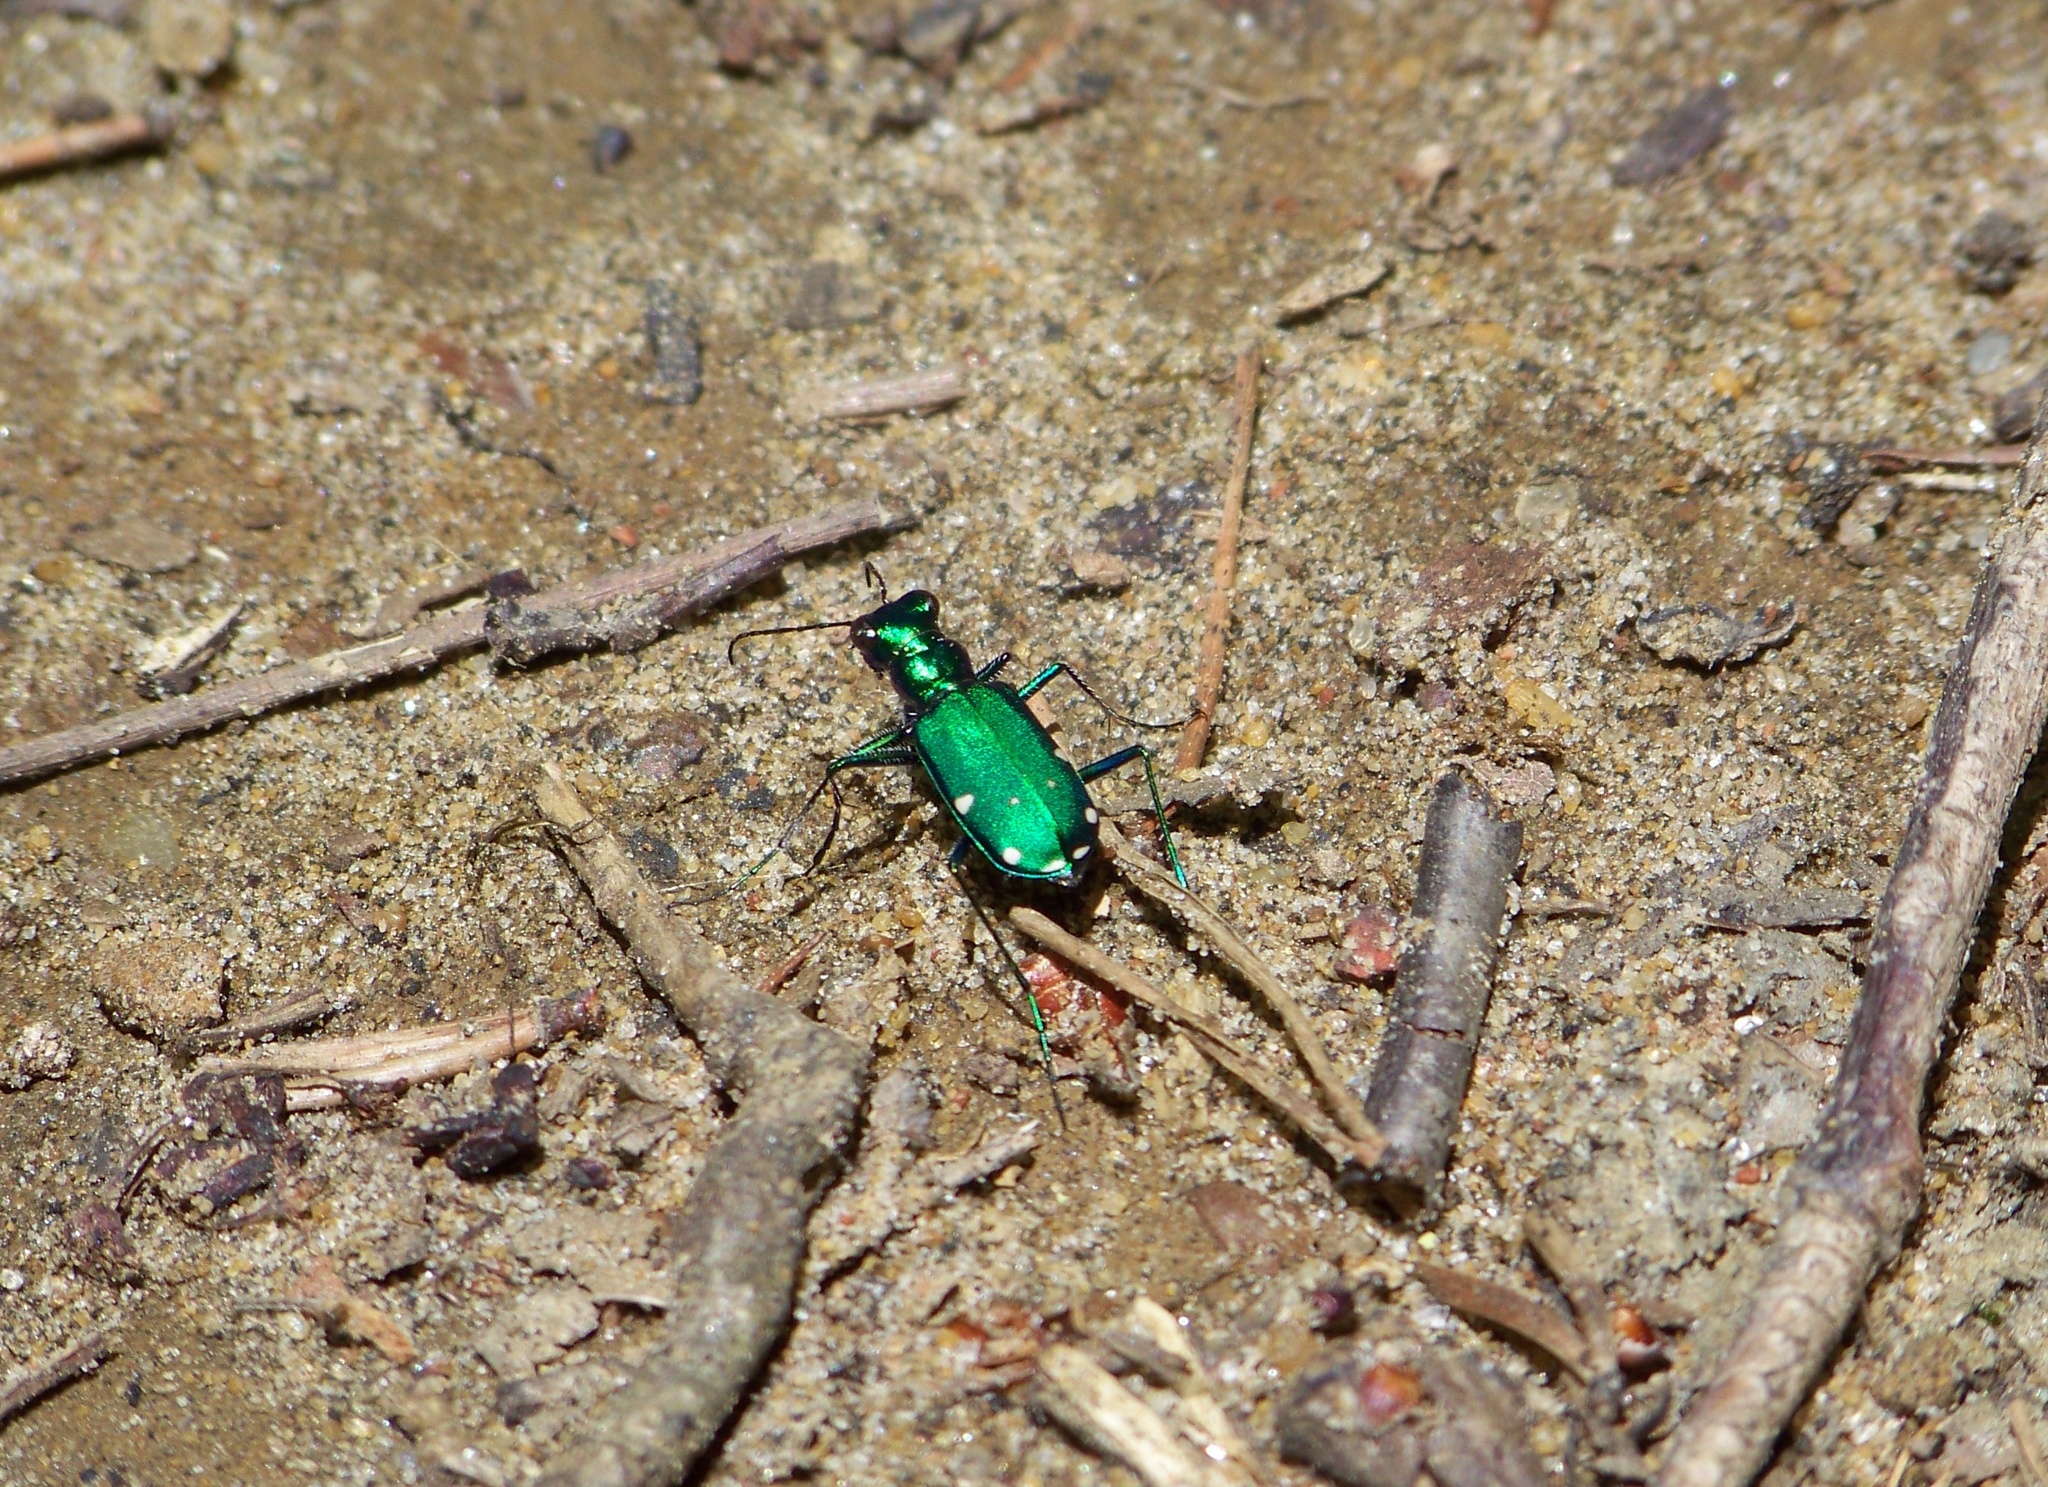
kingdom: Animalia
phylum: Arthropoda
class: Insecta
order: Coleoptera
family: Carabidae
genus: Cicindela
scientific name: Cicindela sexguttata
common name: Six-spotted tiger beetle
